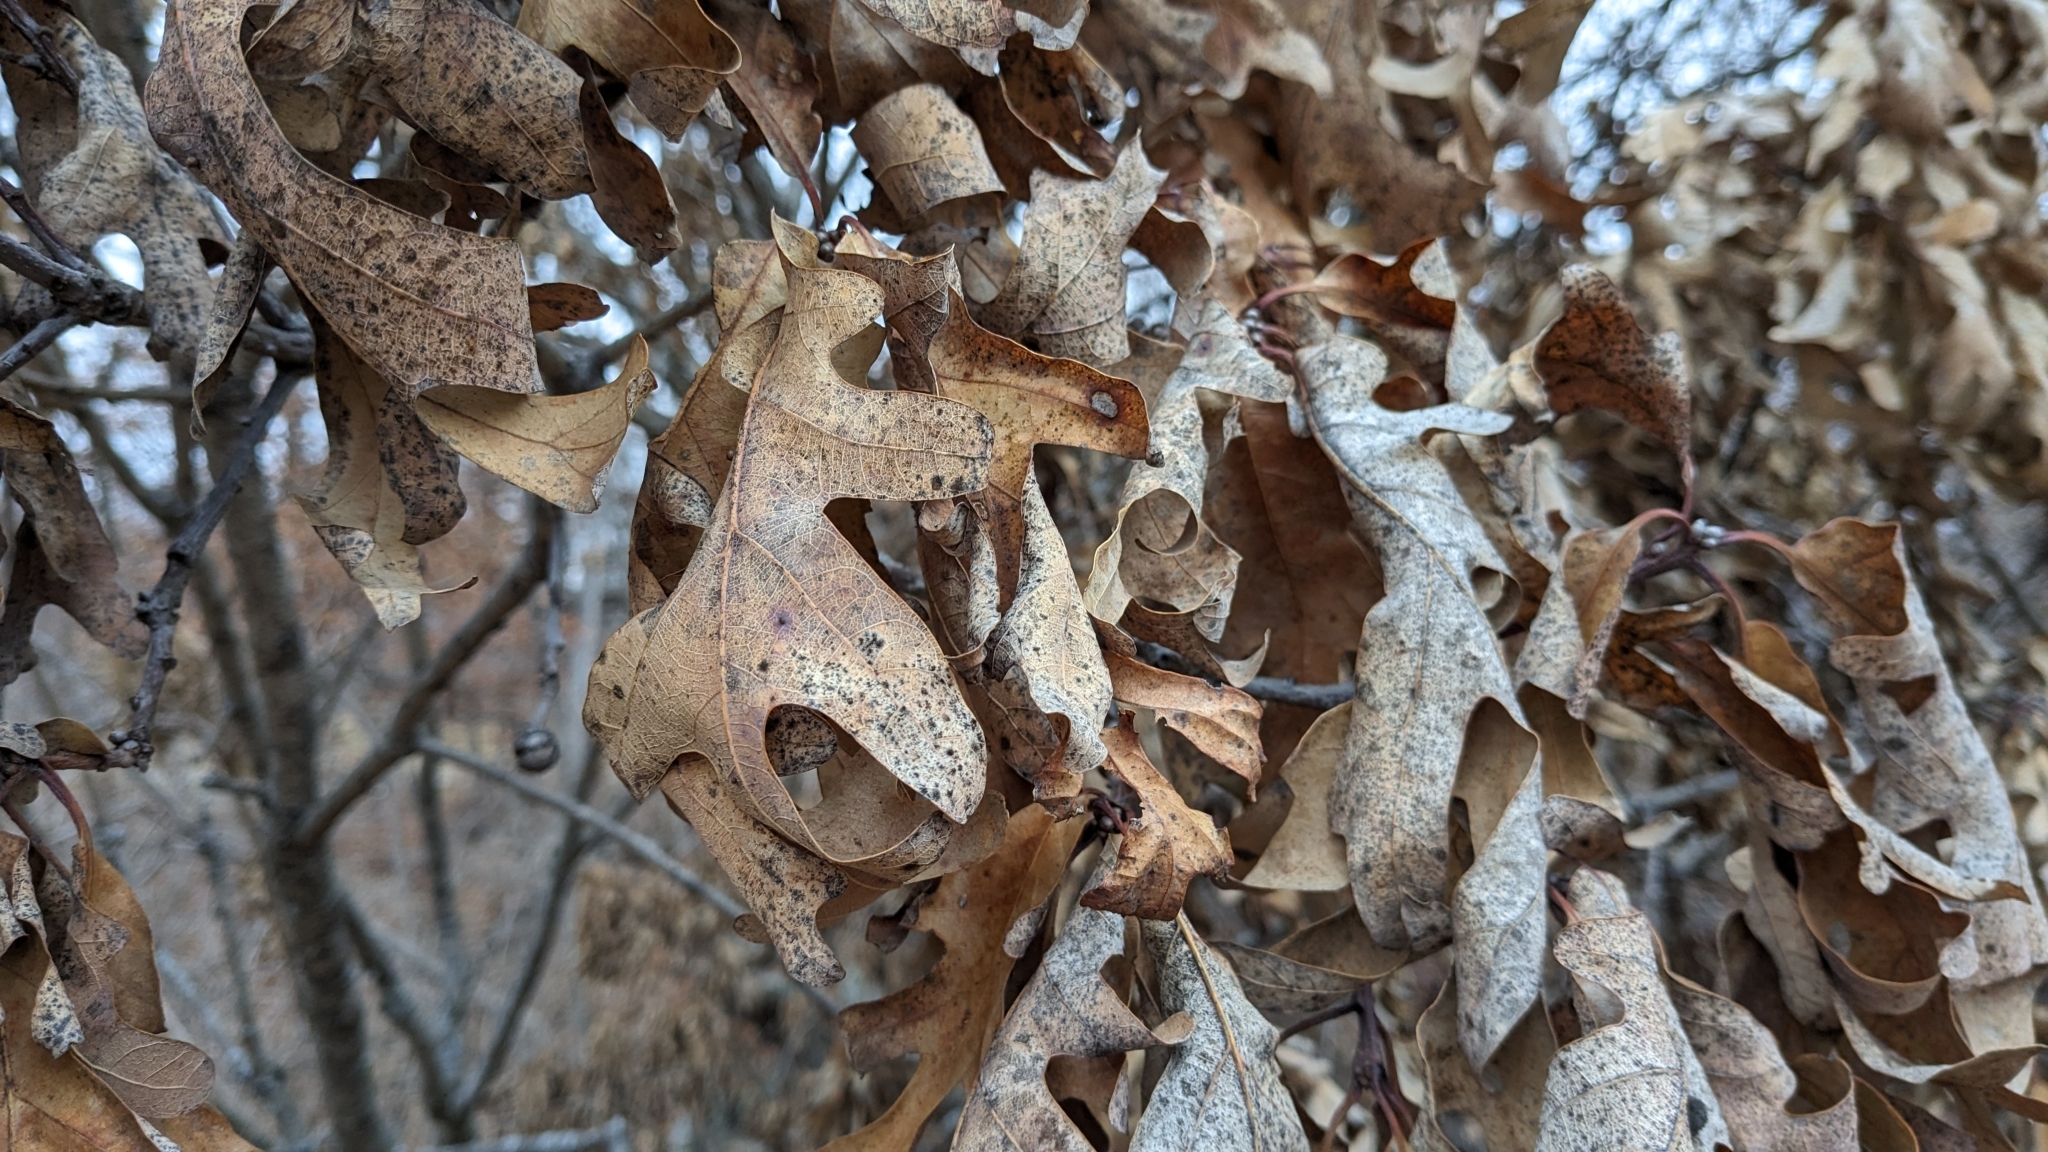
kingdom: Plantae
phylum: Tracheophyta
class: Magnoliopsida
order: Fagales
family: Fagaceae
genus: Quercus
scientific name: Quercus alba
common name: White oak
